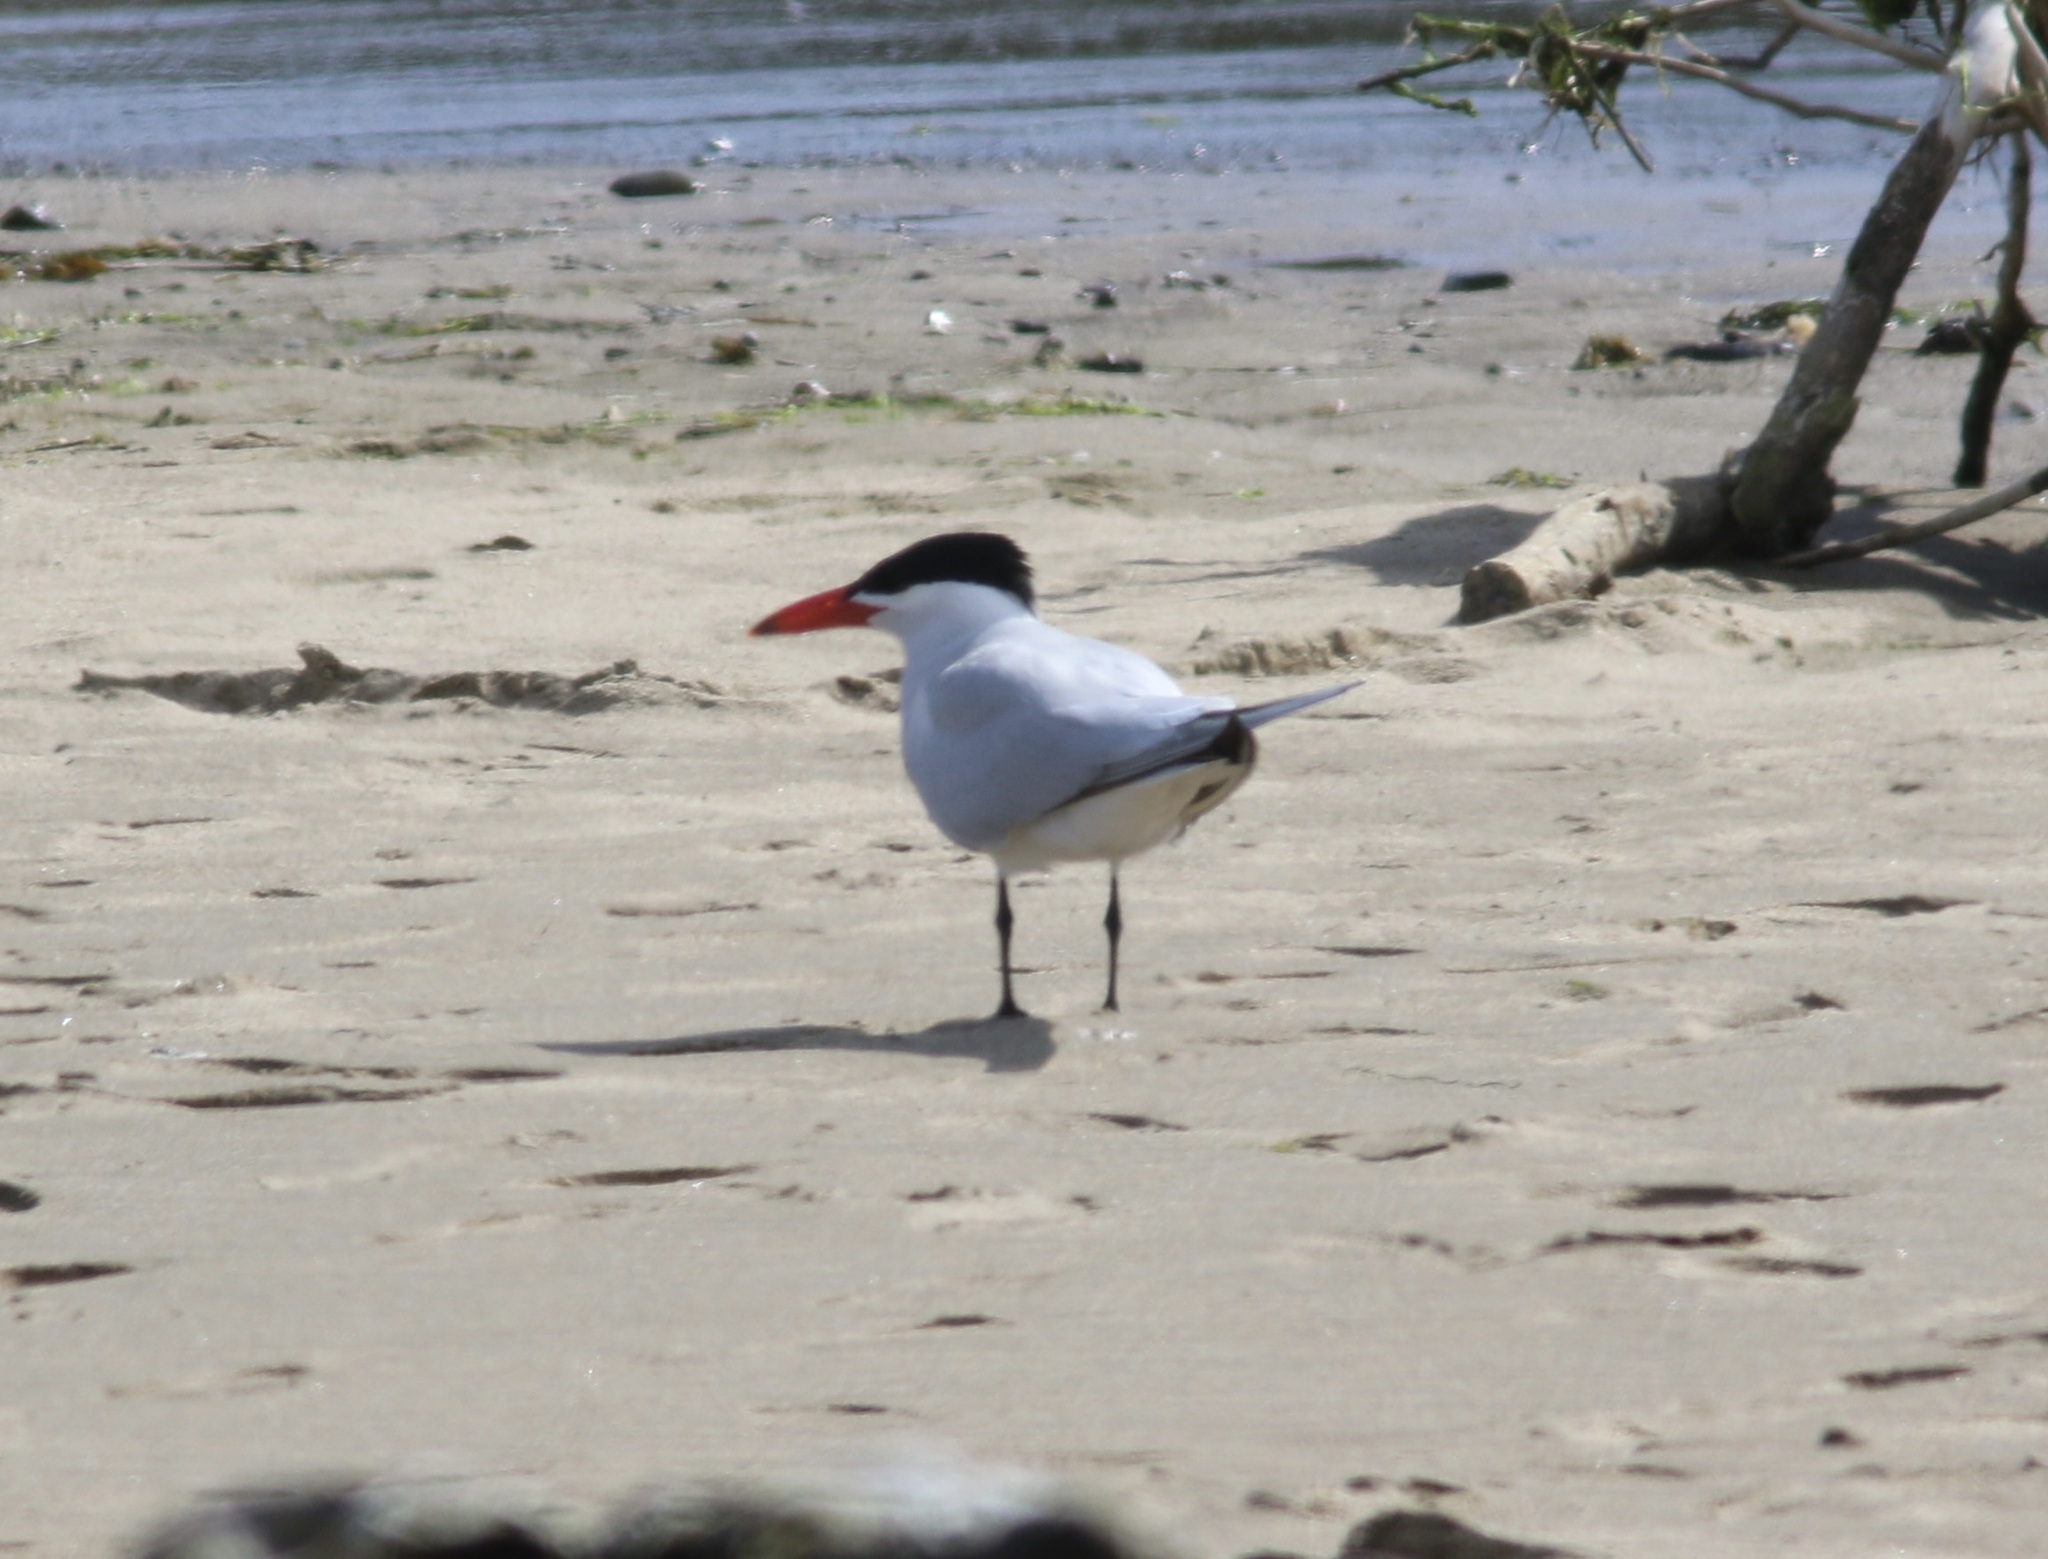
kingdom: Animalia
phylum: Chordata
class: Aves
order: Charadriiformes
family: Laridae
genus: Hydroprogne
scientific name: Hydroprogne caspia
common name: Caspian tern
